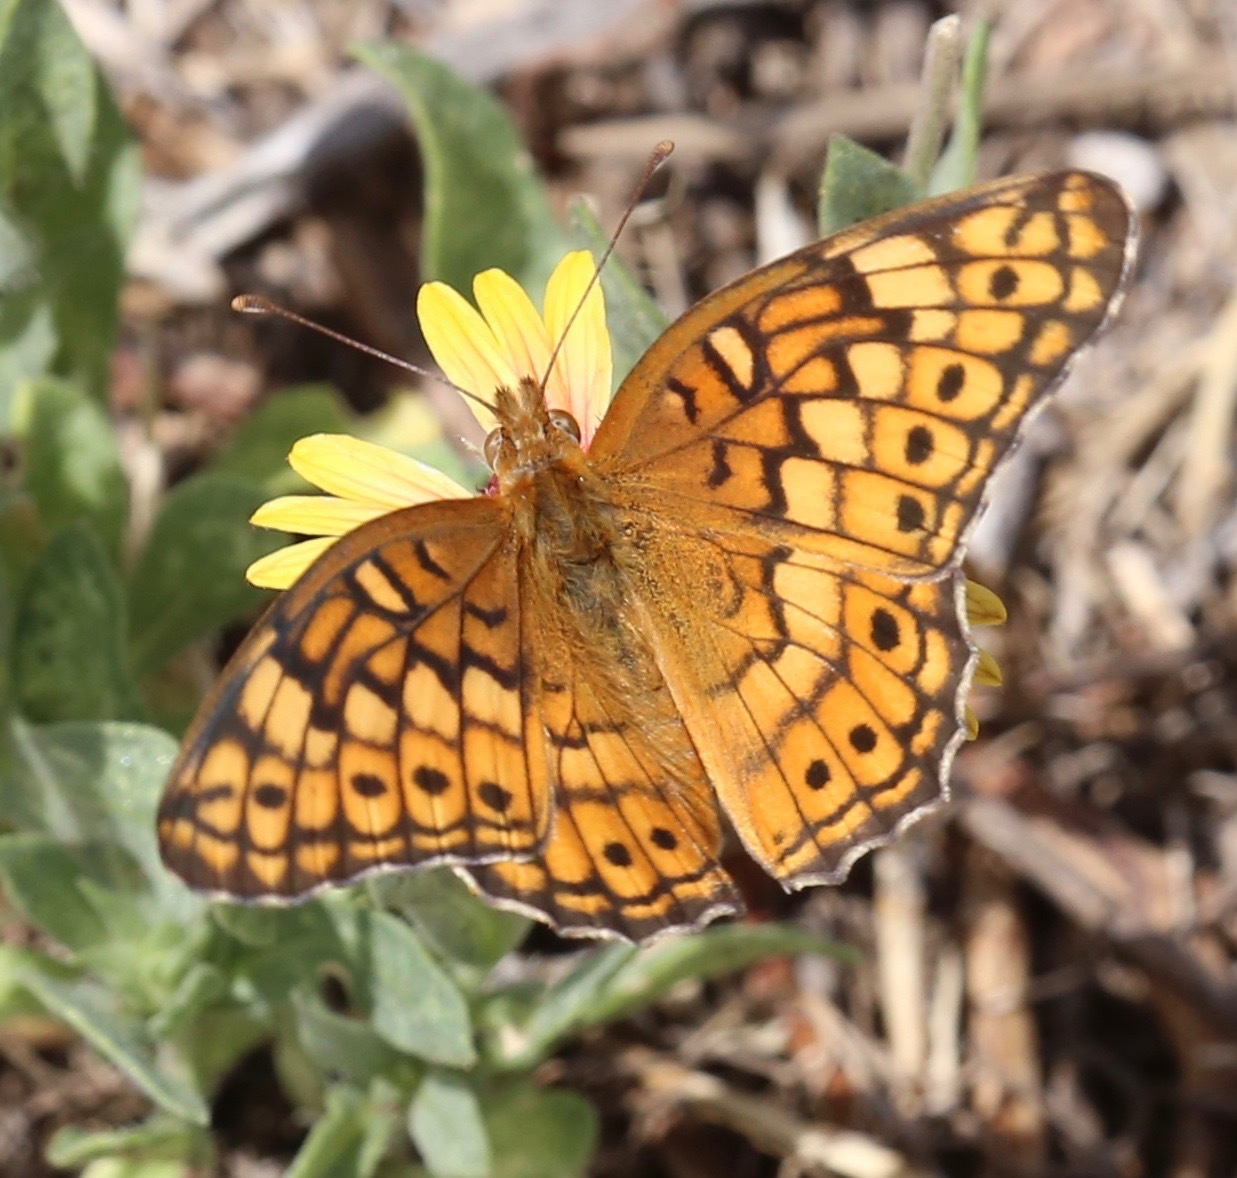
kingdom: Animalia
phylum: Arthropoda
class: Insecta
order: Lepidoptera
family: Nymphalidae
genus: Euptoieta
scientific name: Euptoieta claudia
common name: Variegated fritillary
